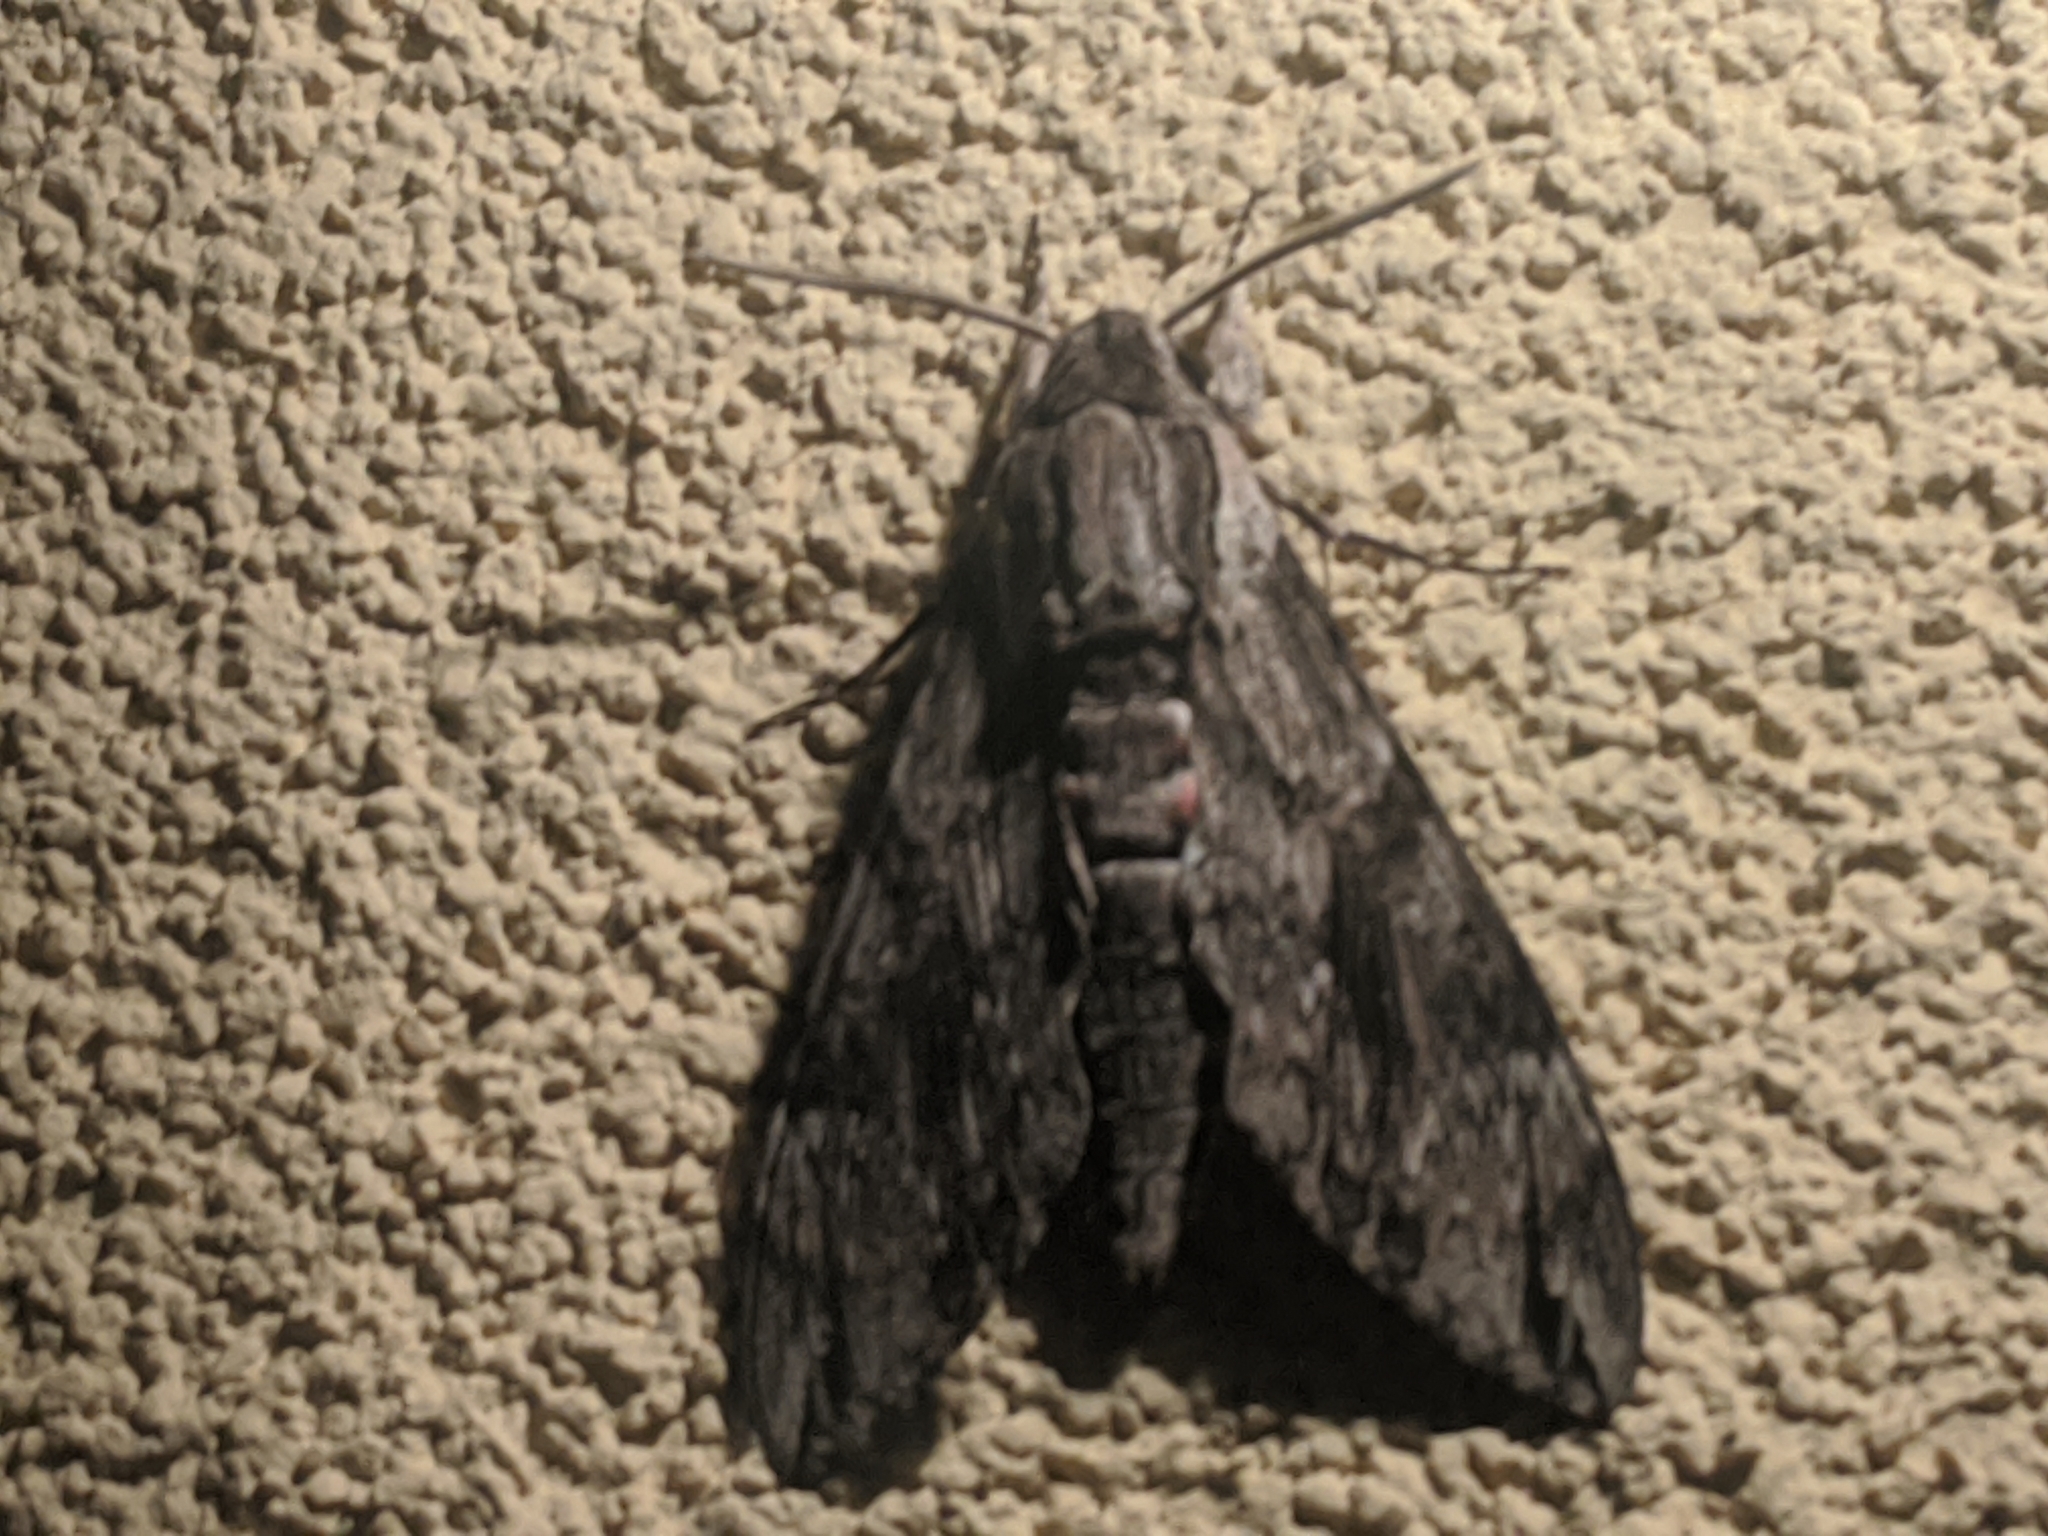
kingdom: Animalia
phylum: Arthropoda
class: Insecta
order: Lepidoptera
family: Sphingidae
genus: Agrius
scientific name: Agrius convolvuli
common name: Convolvulus hawkmoth
